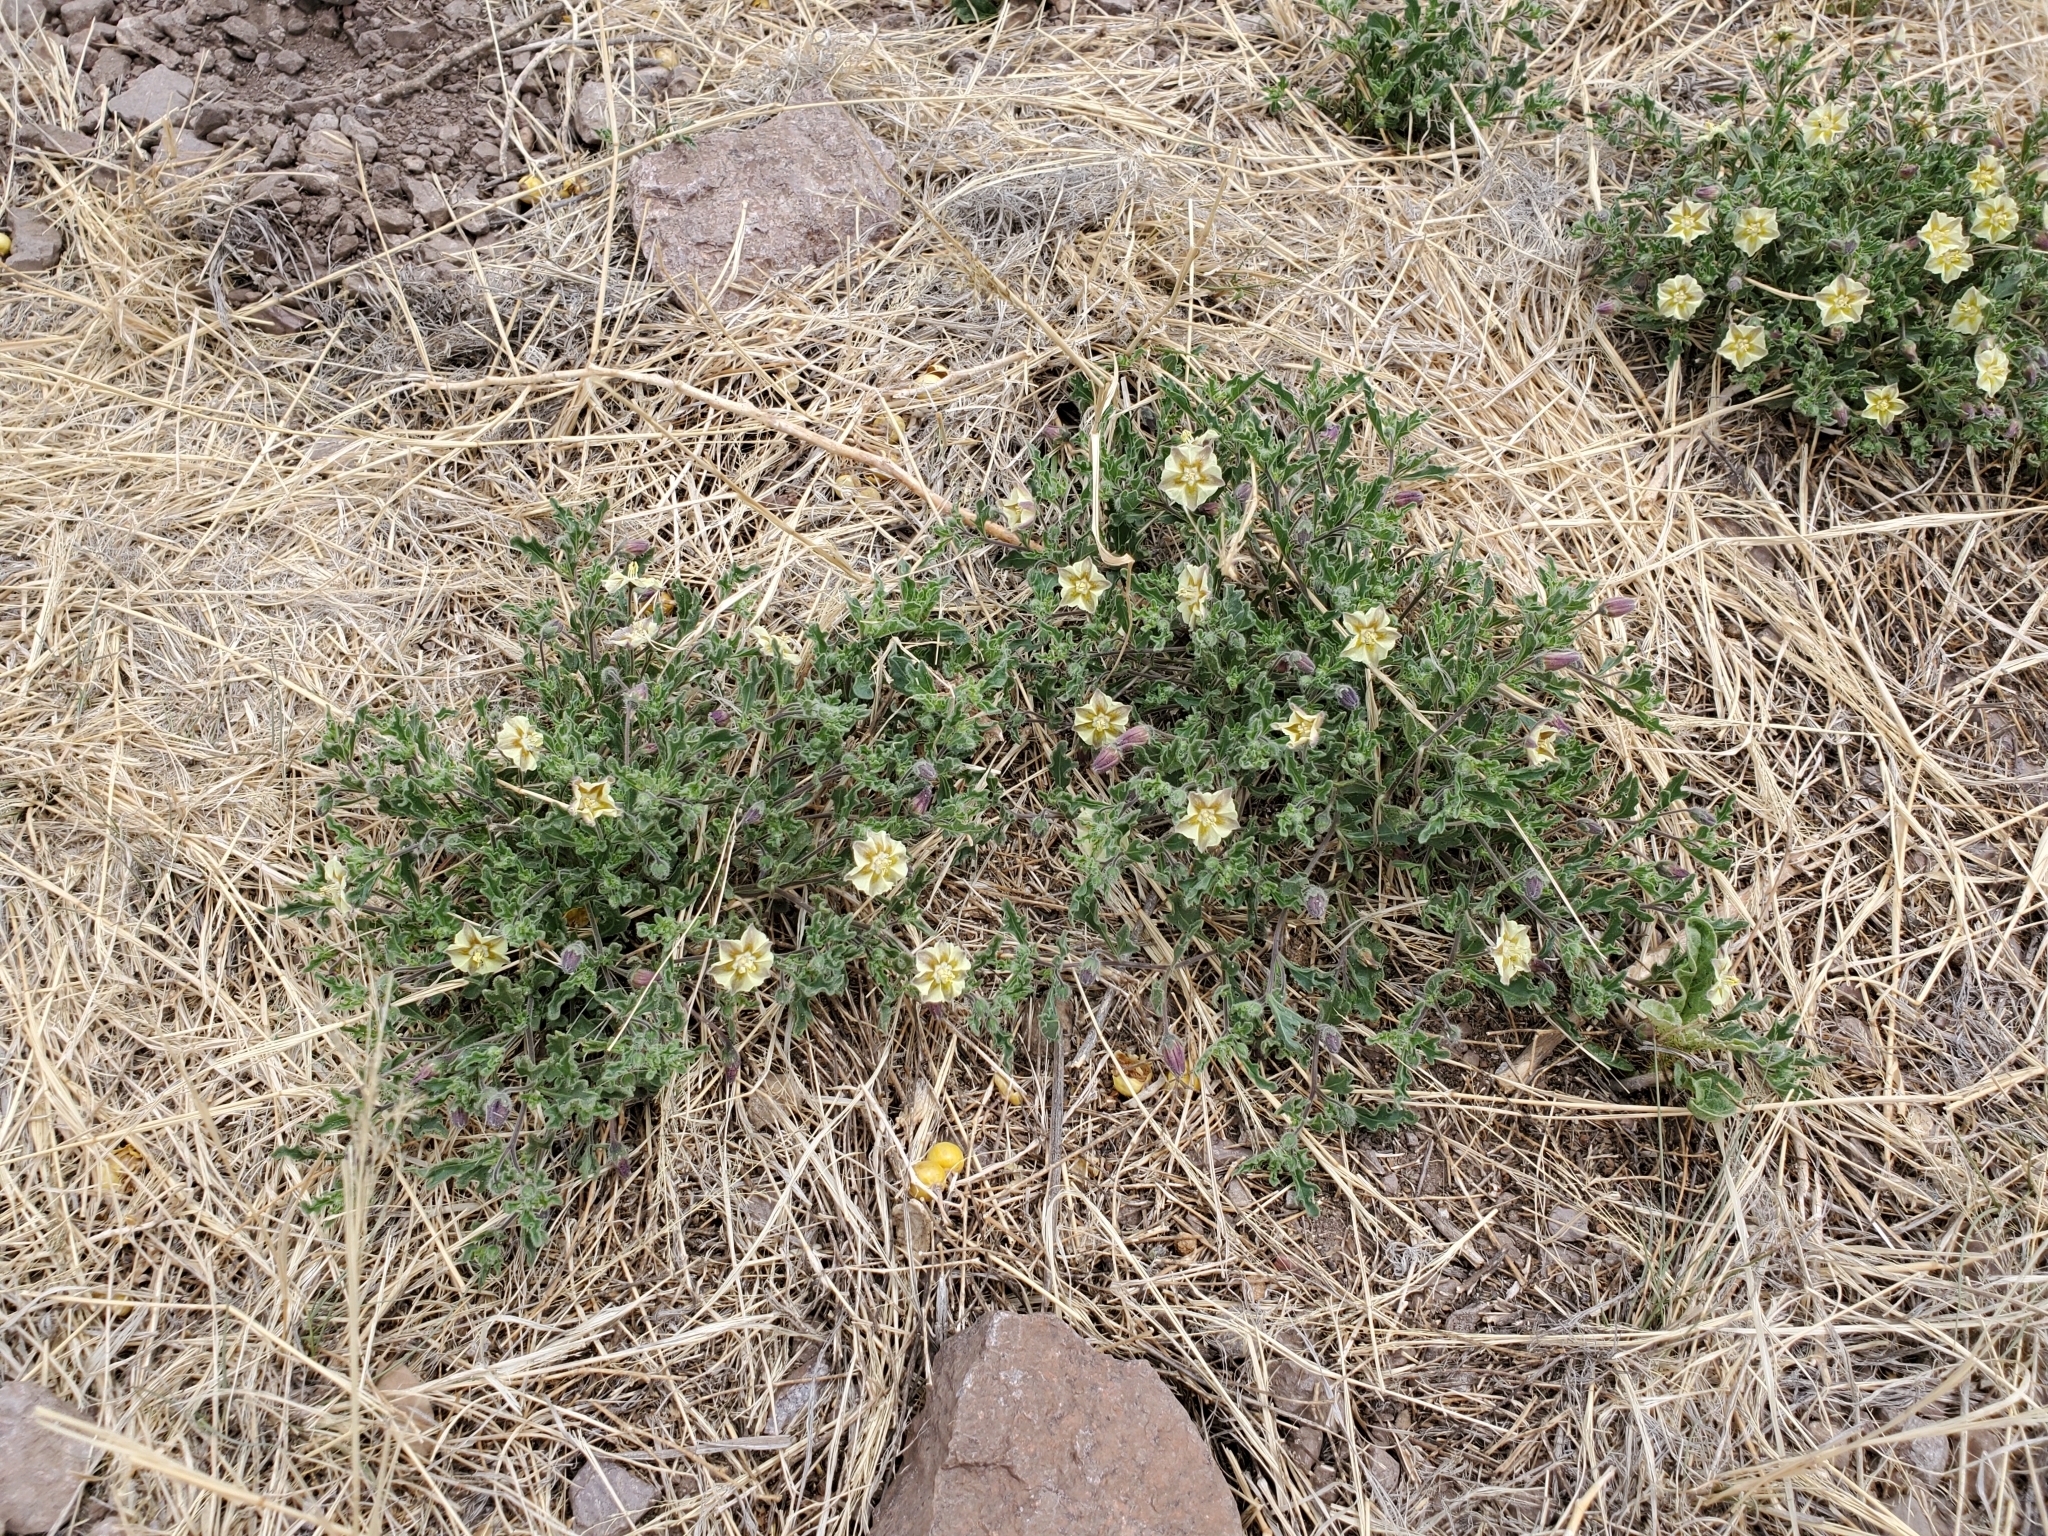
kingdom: Plantae
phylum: Tracheophyta
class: Magnoliopsida
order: Solanales
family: Solanaceae
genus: Chamaesaracha
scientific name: Chamaesaracha sordida
